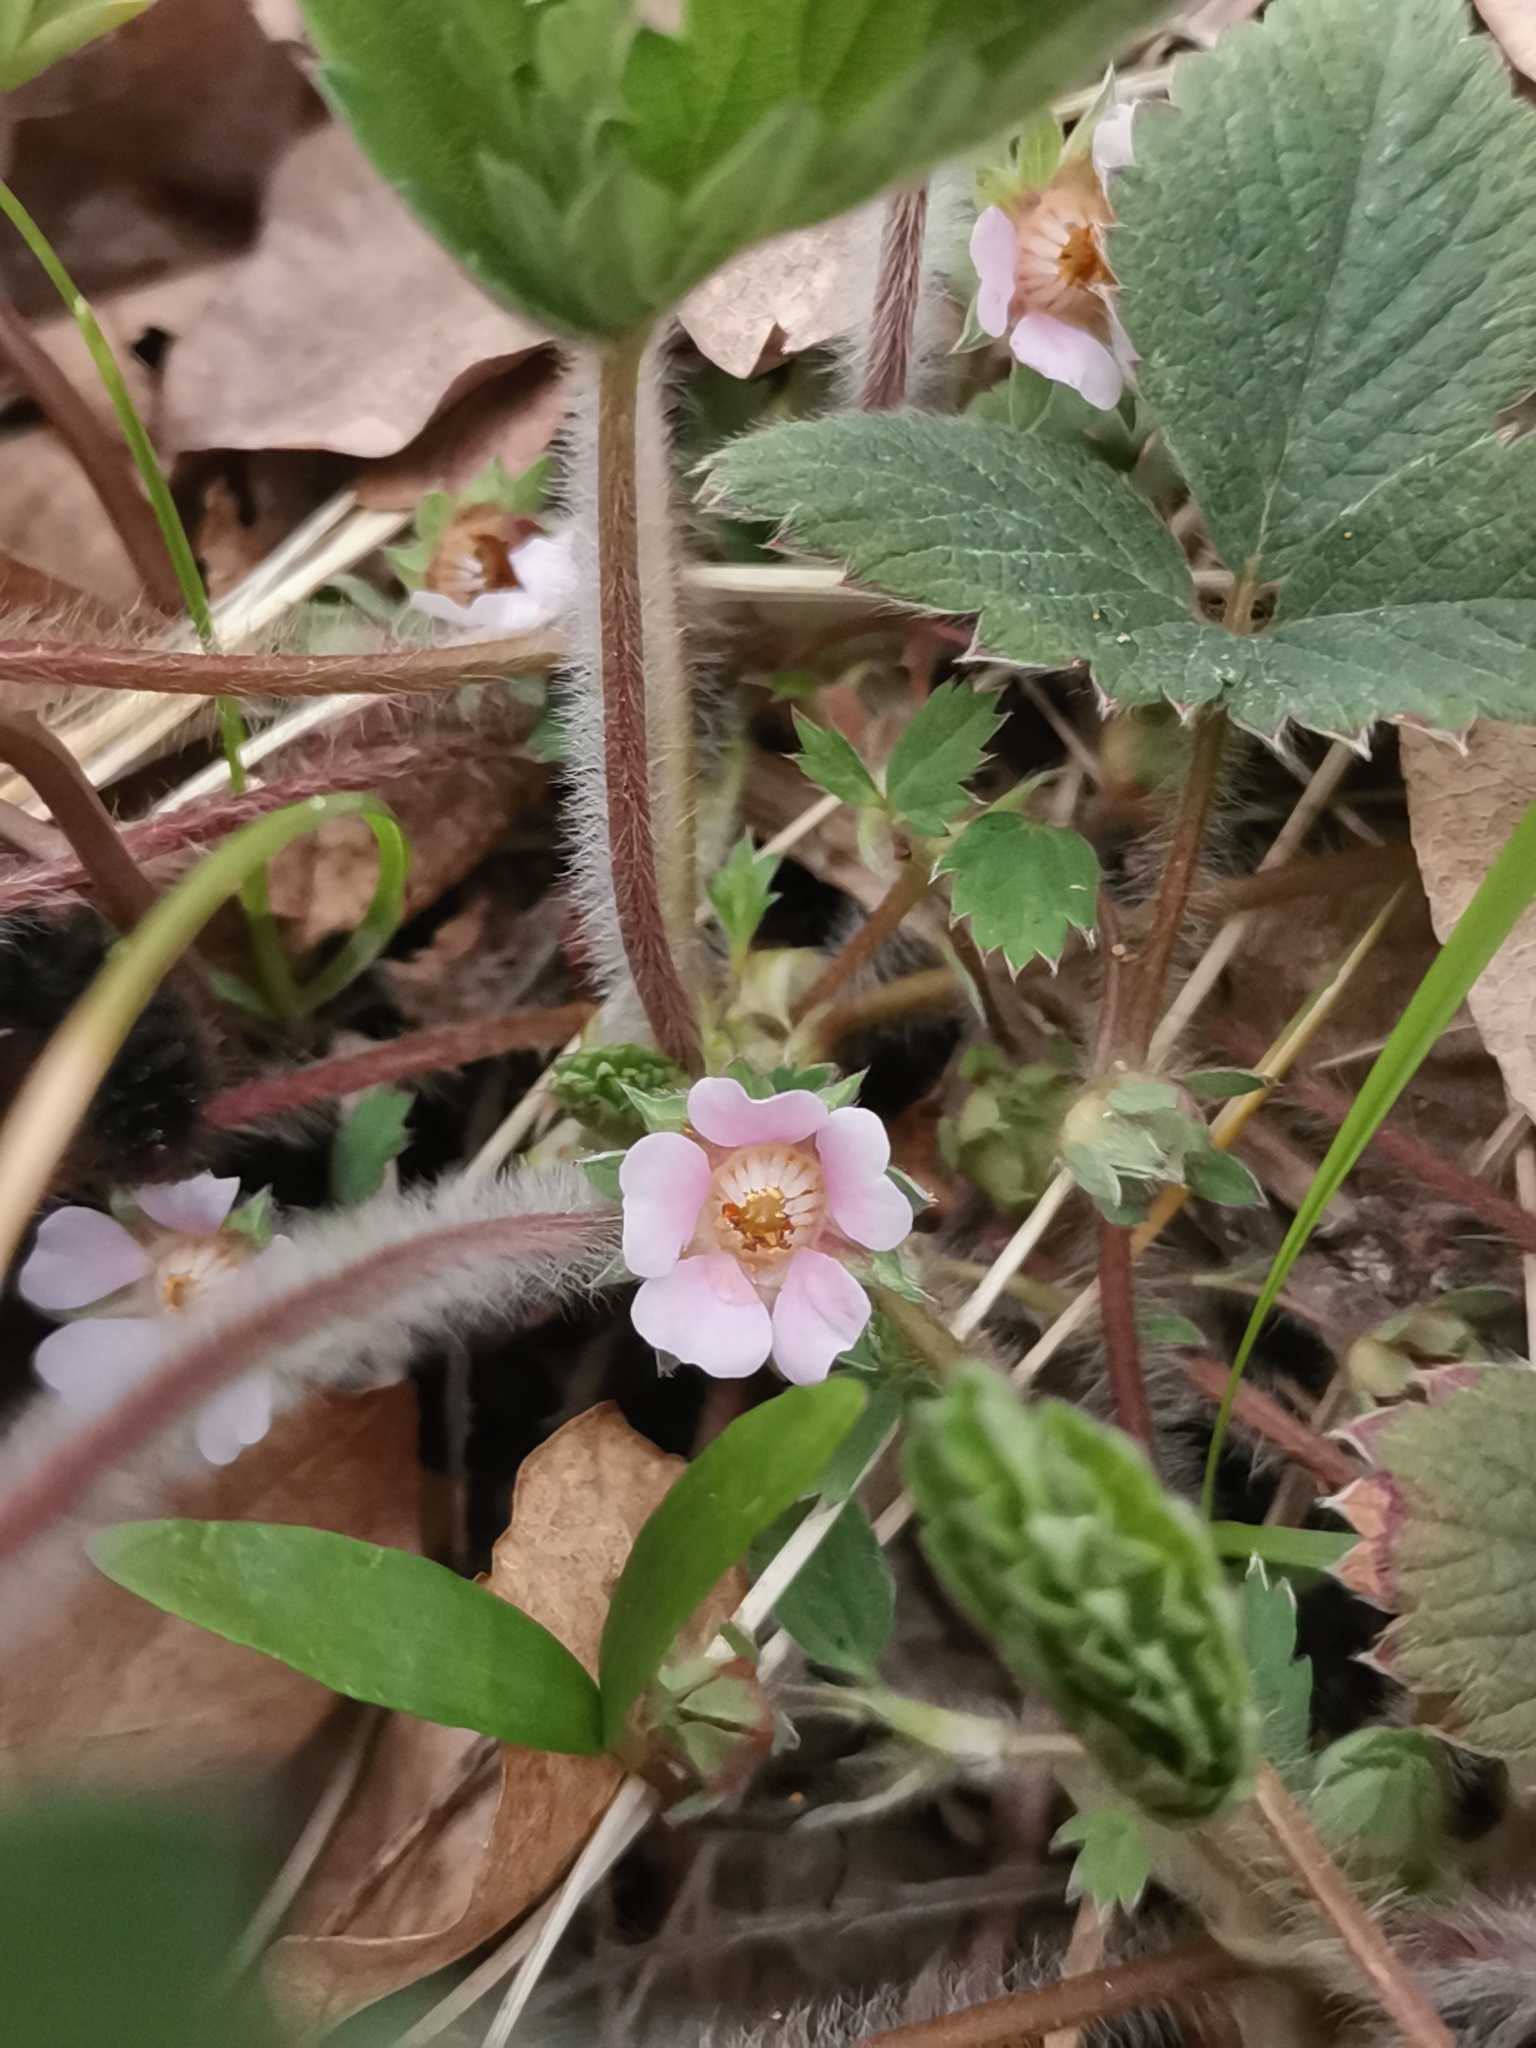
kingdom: Plantae
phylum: Tracheophyta
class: Magnoliopsida
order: Rosales
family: Rosaceae
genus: Potentilla
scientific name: Potentilla micrantha
